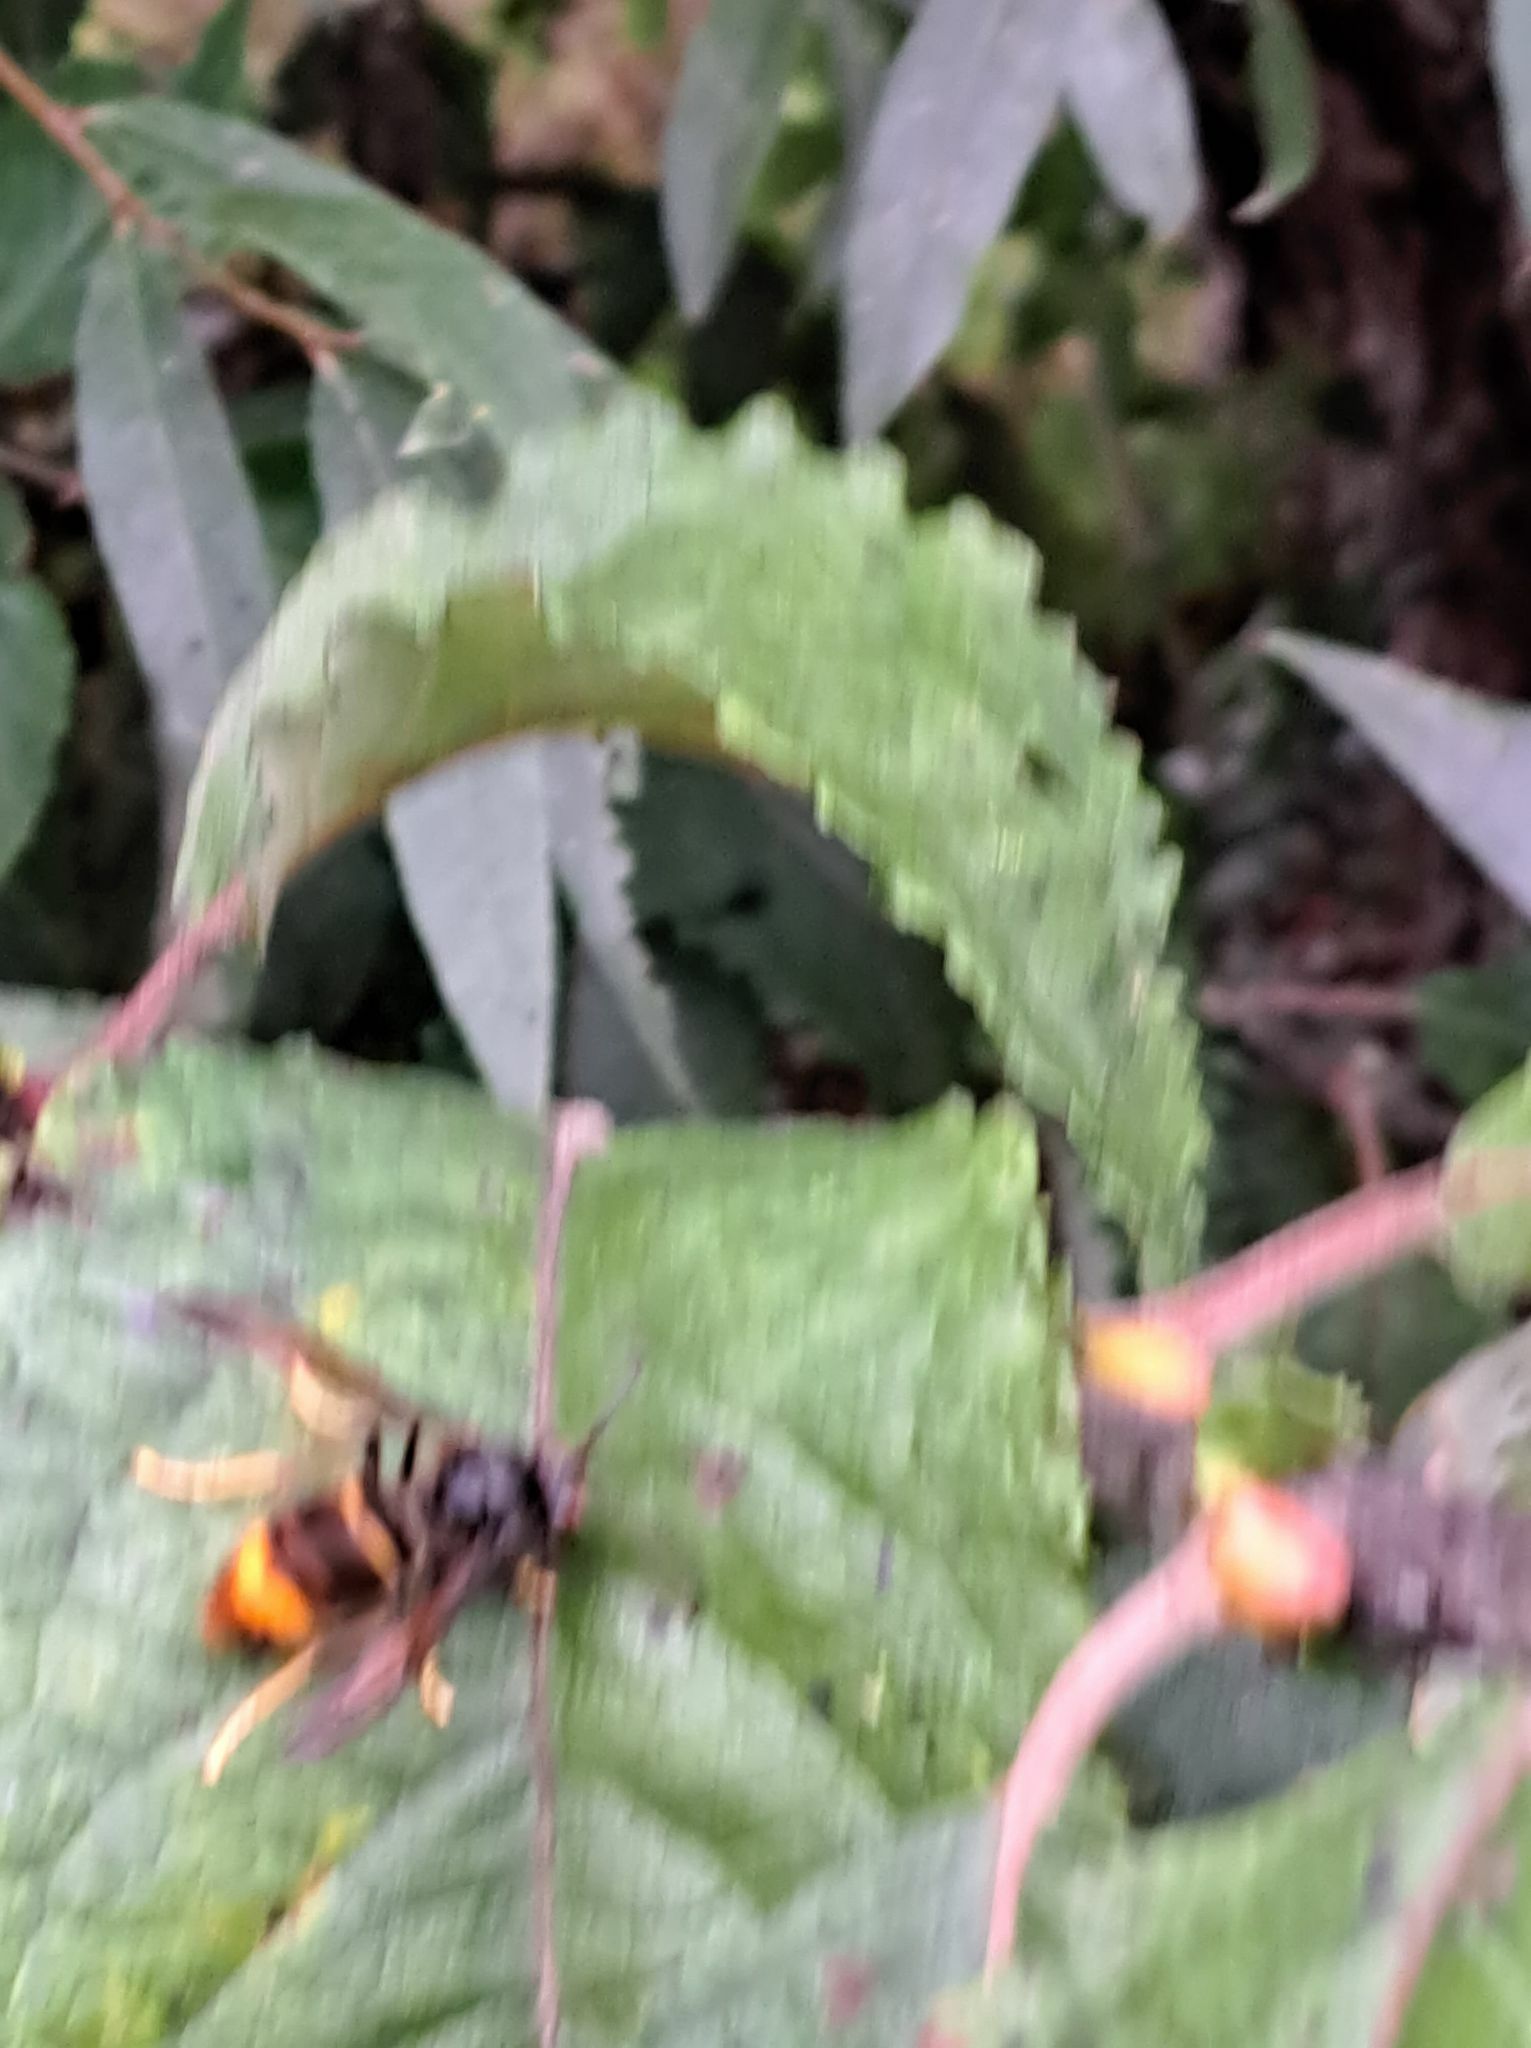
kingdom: Animalia
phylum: Arthropoda
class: Insecta
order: Hymenoptera
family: Vespidae
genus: Vespa
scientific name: Vespa velutina
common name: Asian hornet
